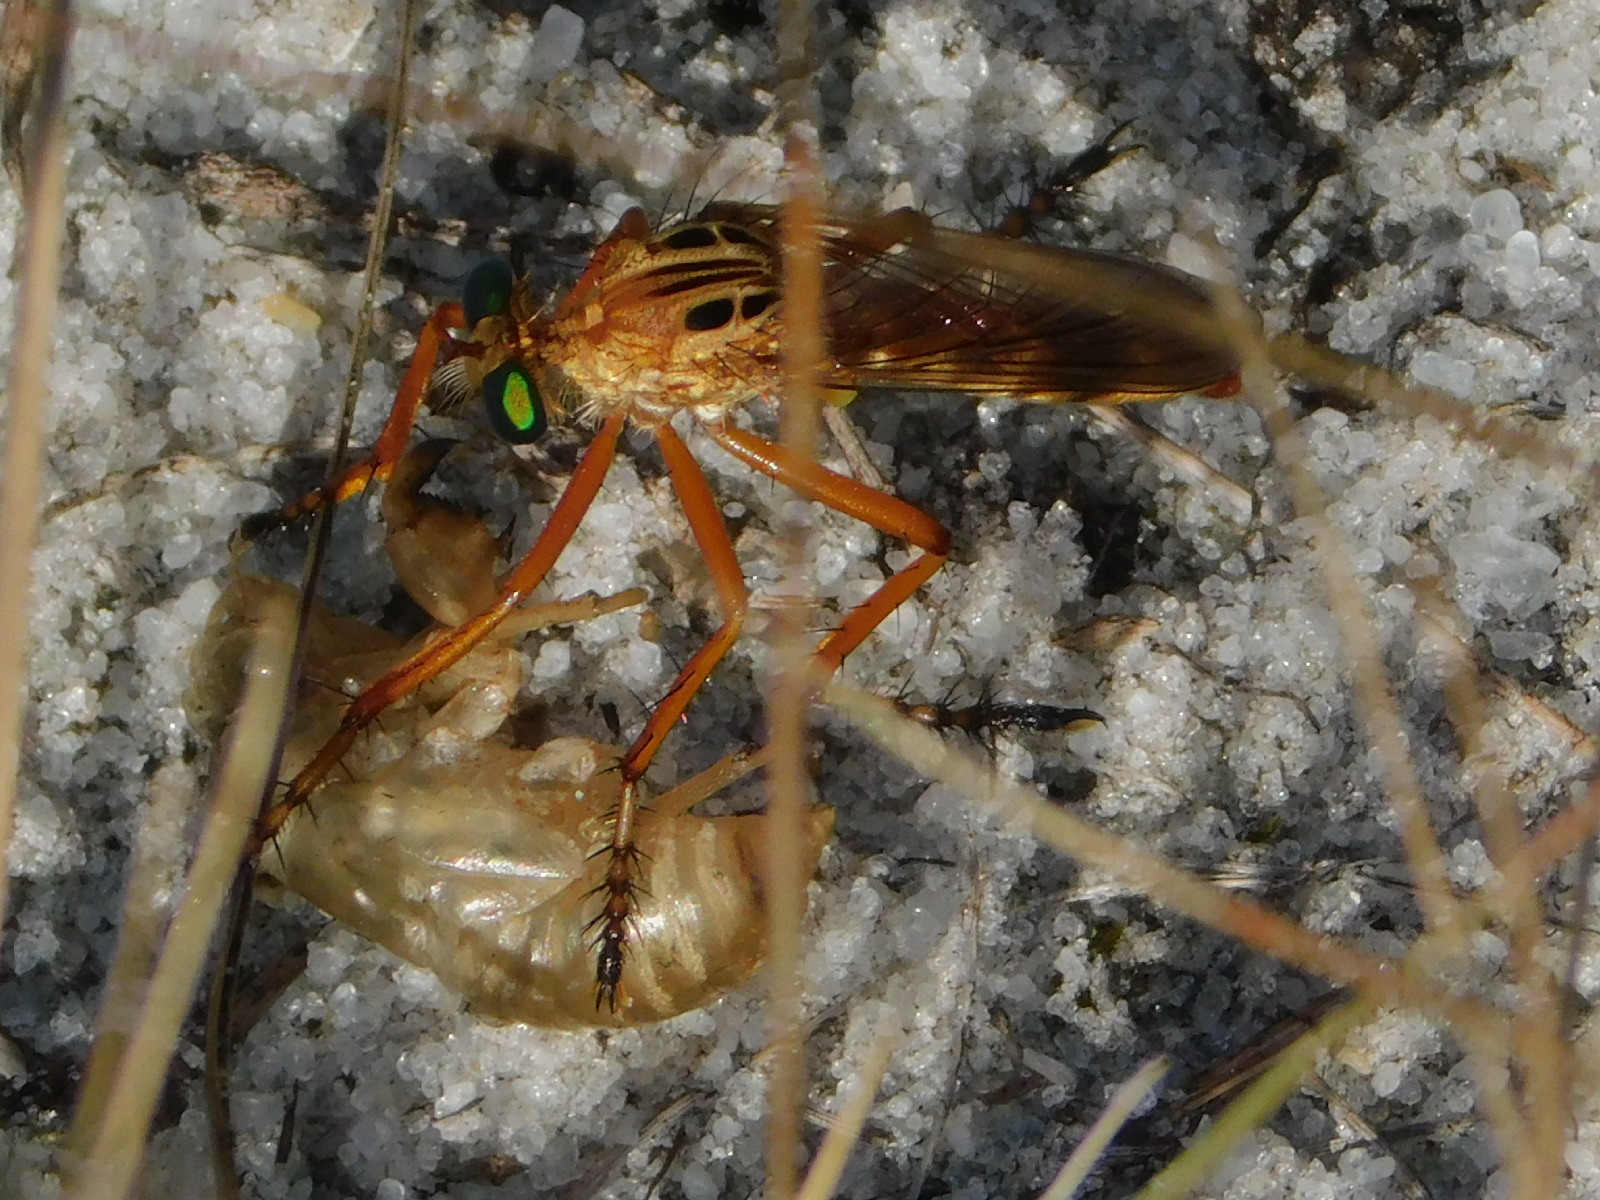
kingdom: Animalia
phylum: Arthropoda
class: Insecta
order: Diptera
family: Asilidae
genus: Diogmites
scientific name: Diogmites esuriens
